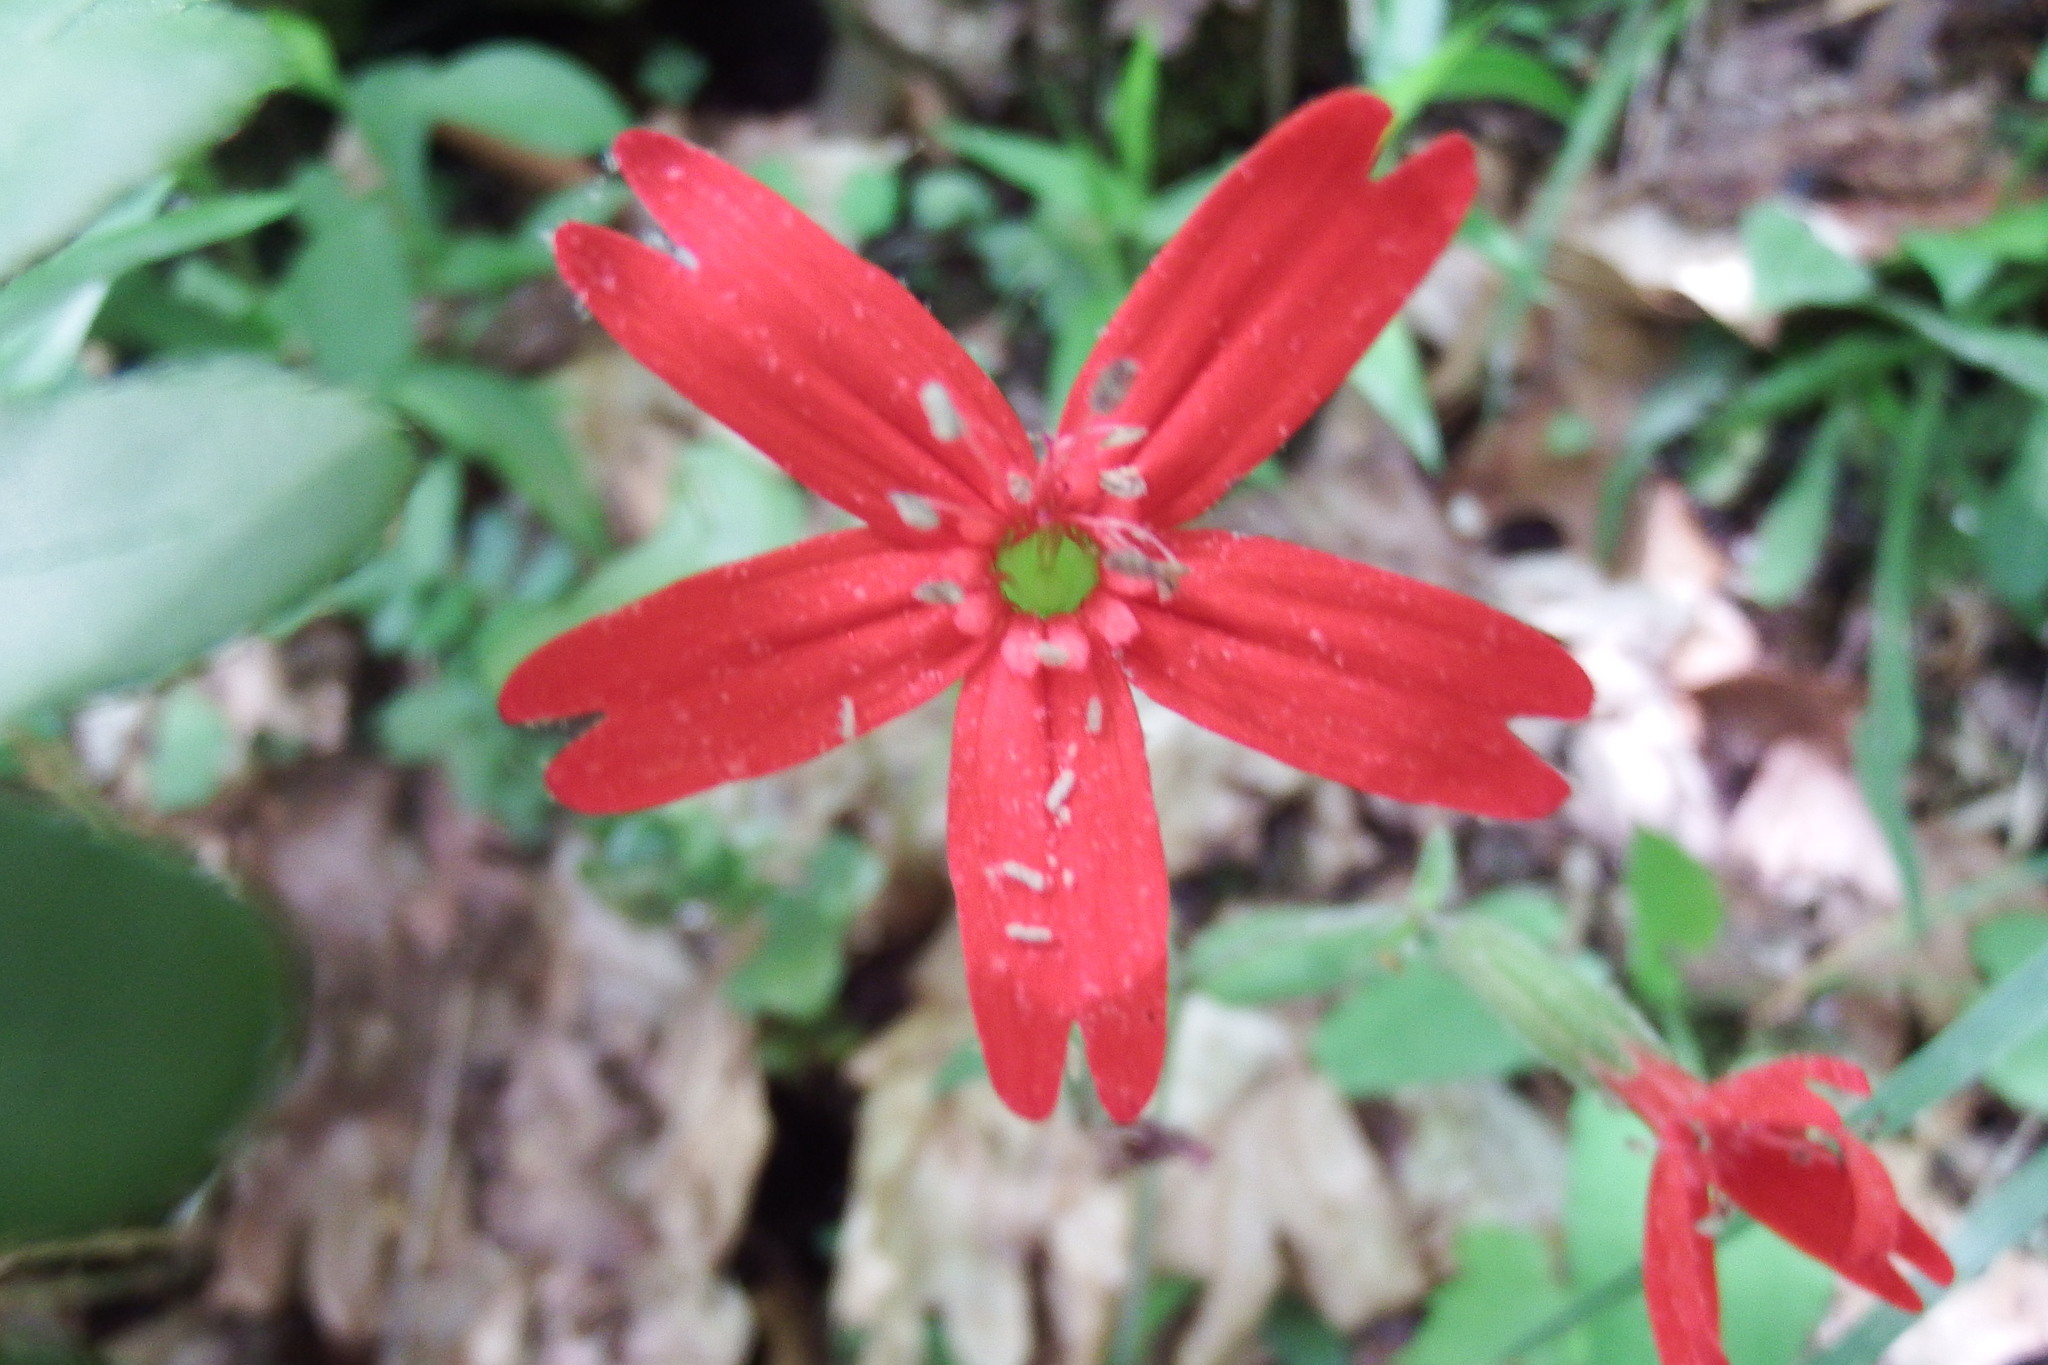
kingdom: Plantae
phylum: Tracheophyta
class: Magnoliopsida
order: Caryophyllales
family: Caryophyllaceae
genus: Silene
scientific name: Silene virginica
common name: Fire-pink
